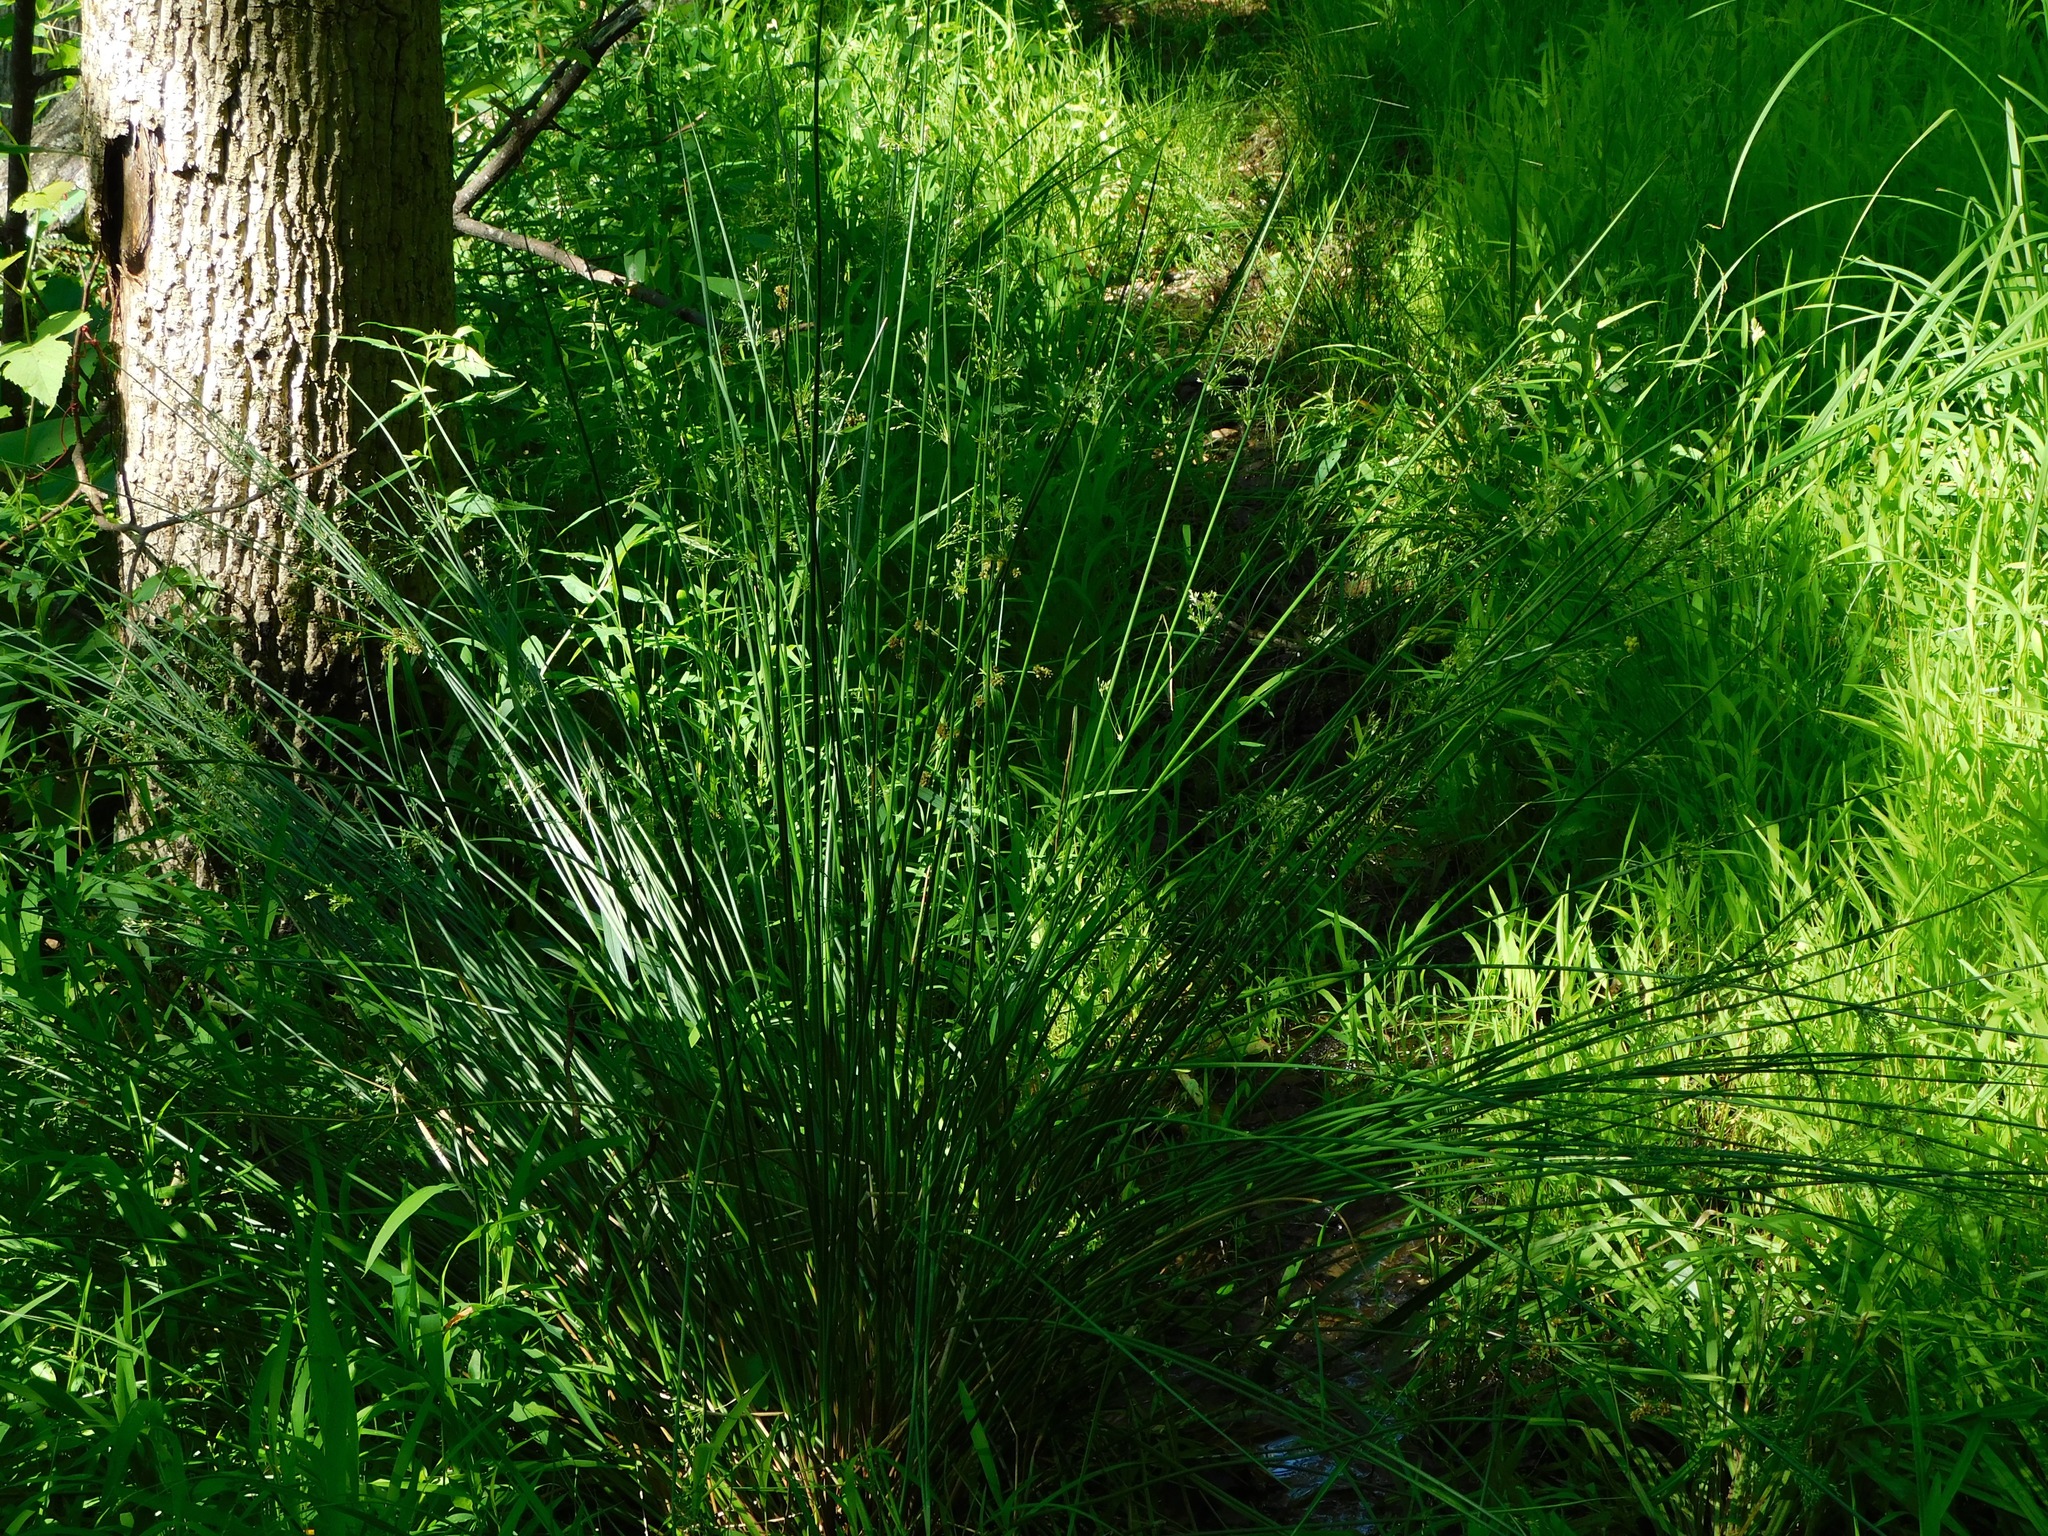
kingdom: Plantae
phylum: Tracheophyta
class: Liliopsida
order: Poales
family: Juncaceae
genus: Juncus
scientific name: Juncus effusus
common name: Soft rush
